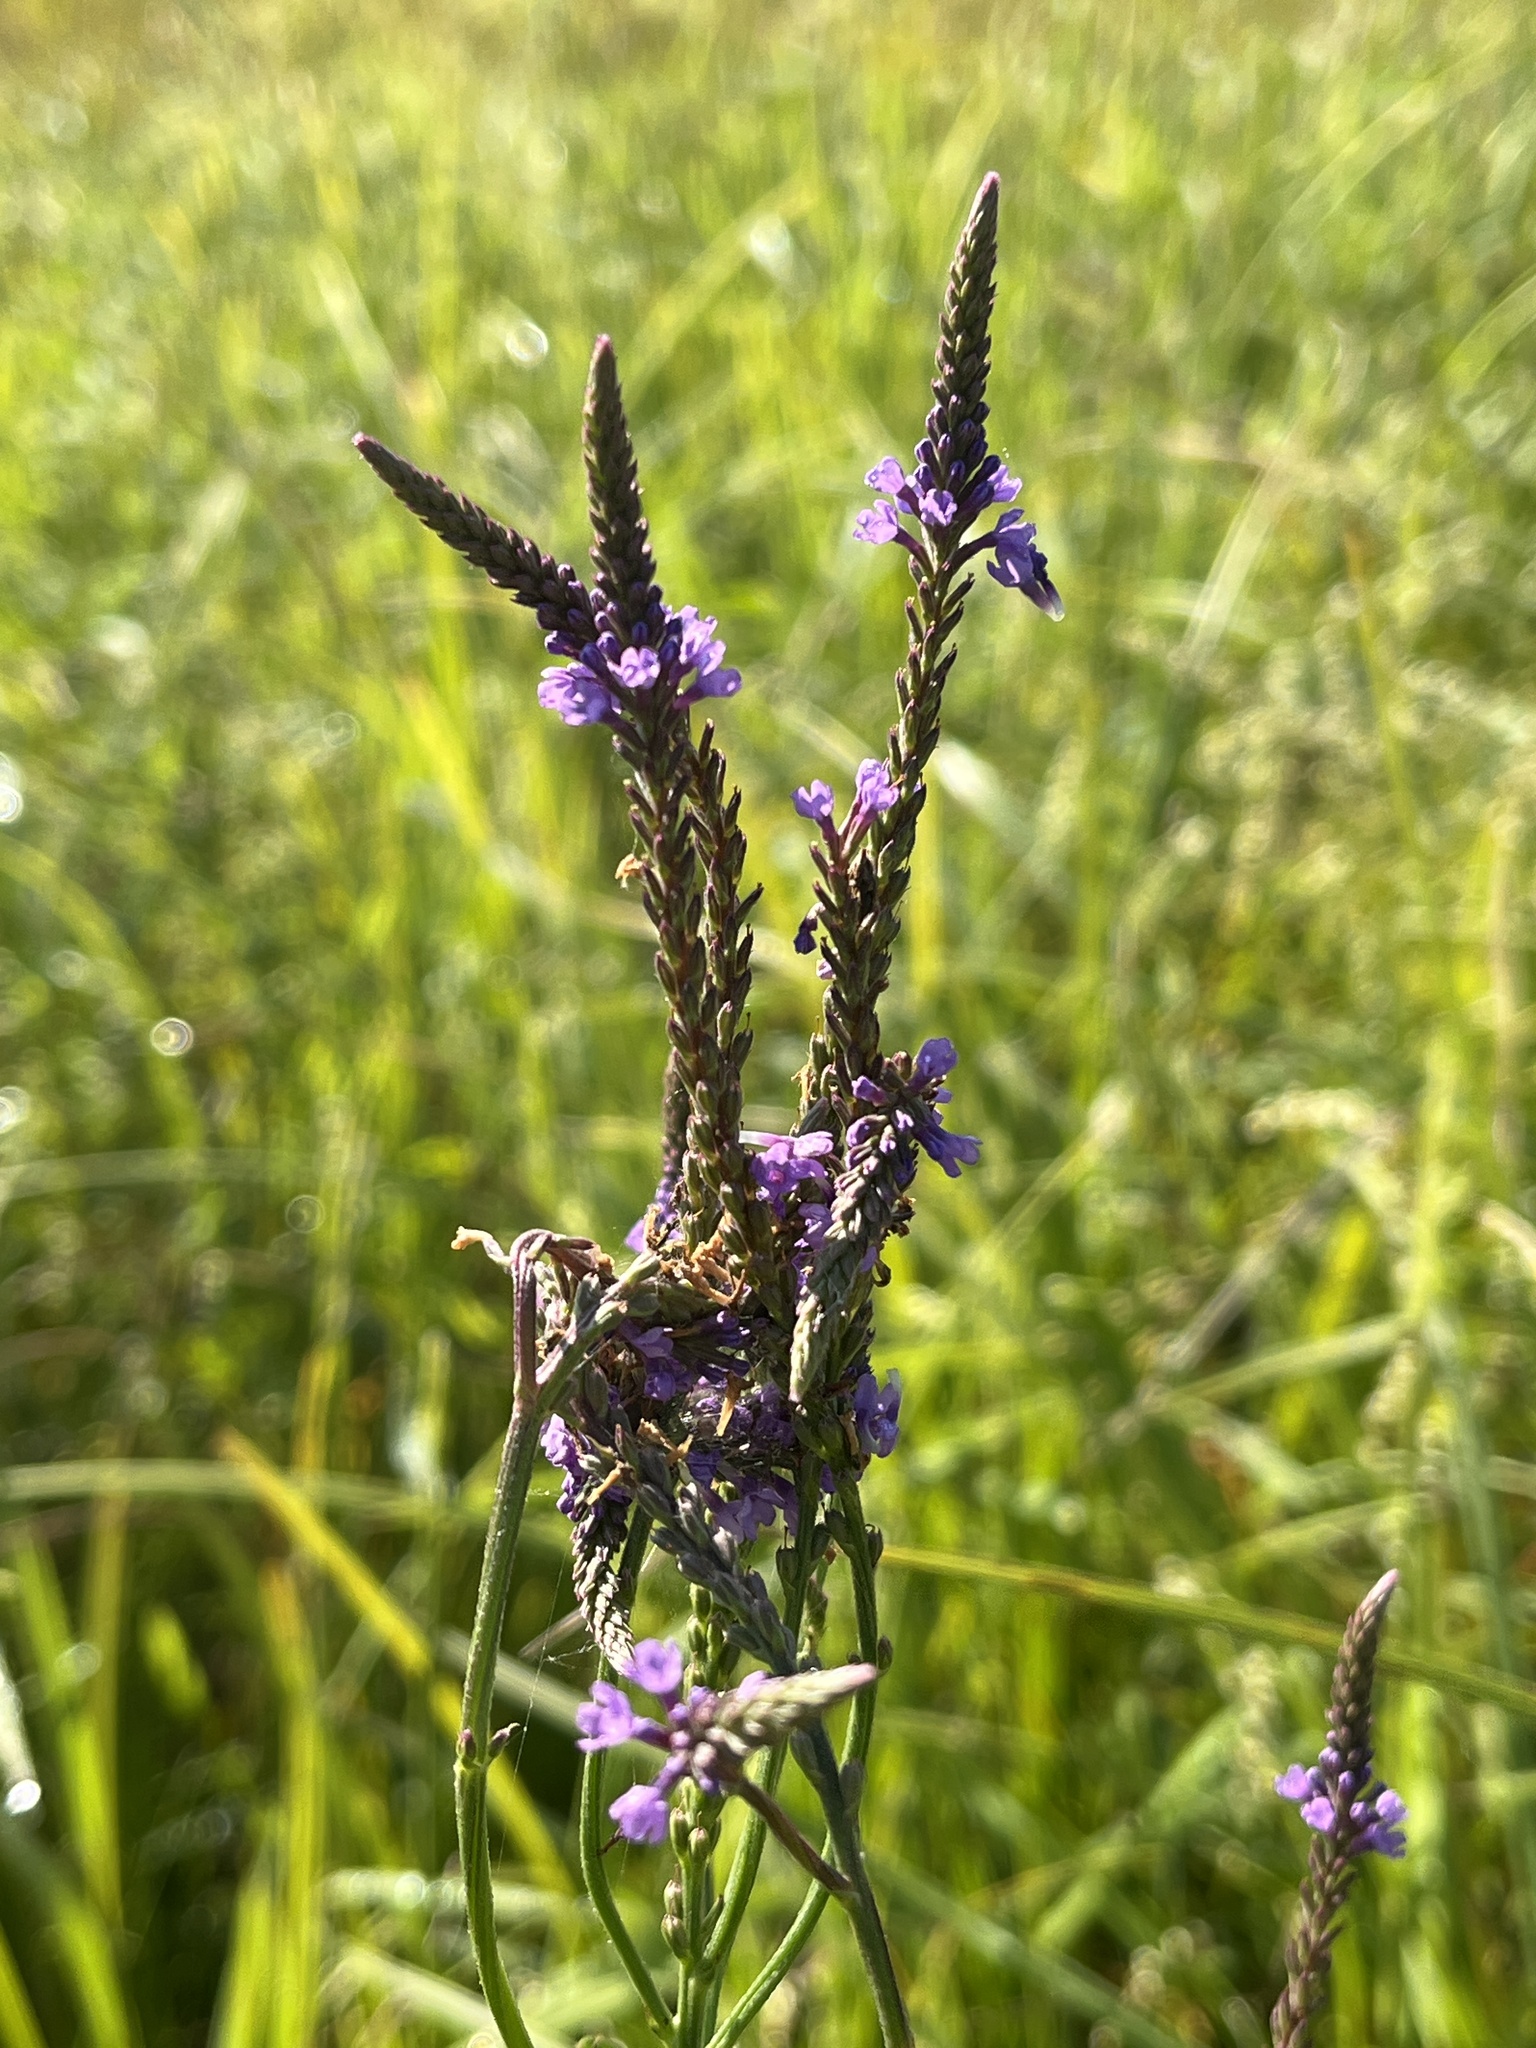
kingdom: Plantae
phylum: Tracheophyta
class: Magnoliopsida
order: Lamiales
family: Verbenaceae
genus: Verbena
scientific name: Verbena hastata
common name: American blue vervain
